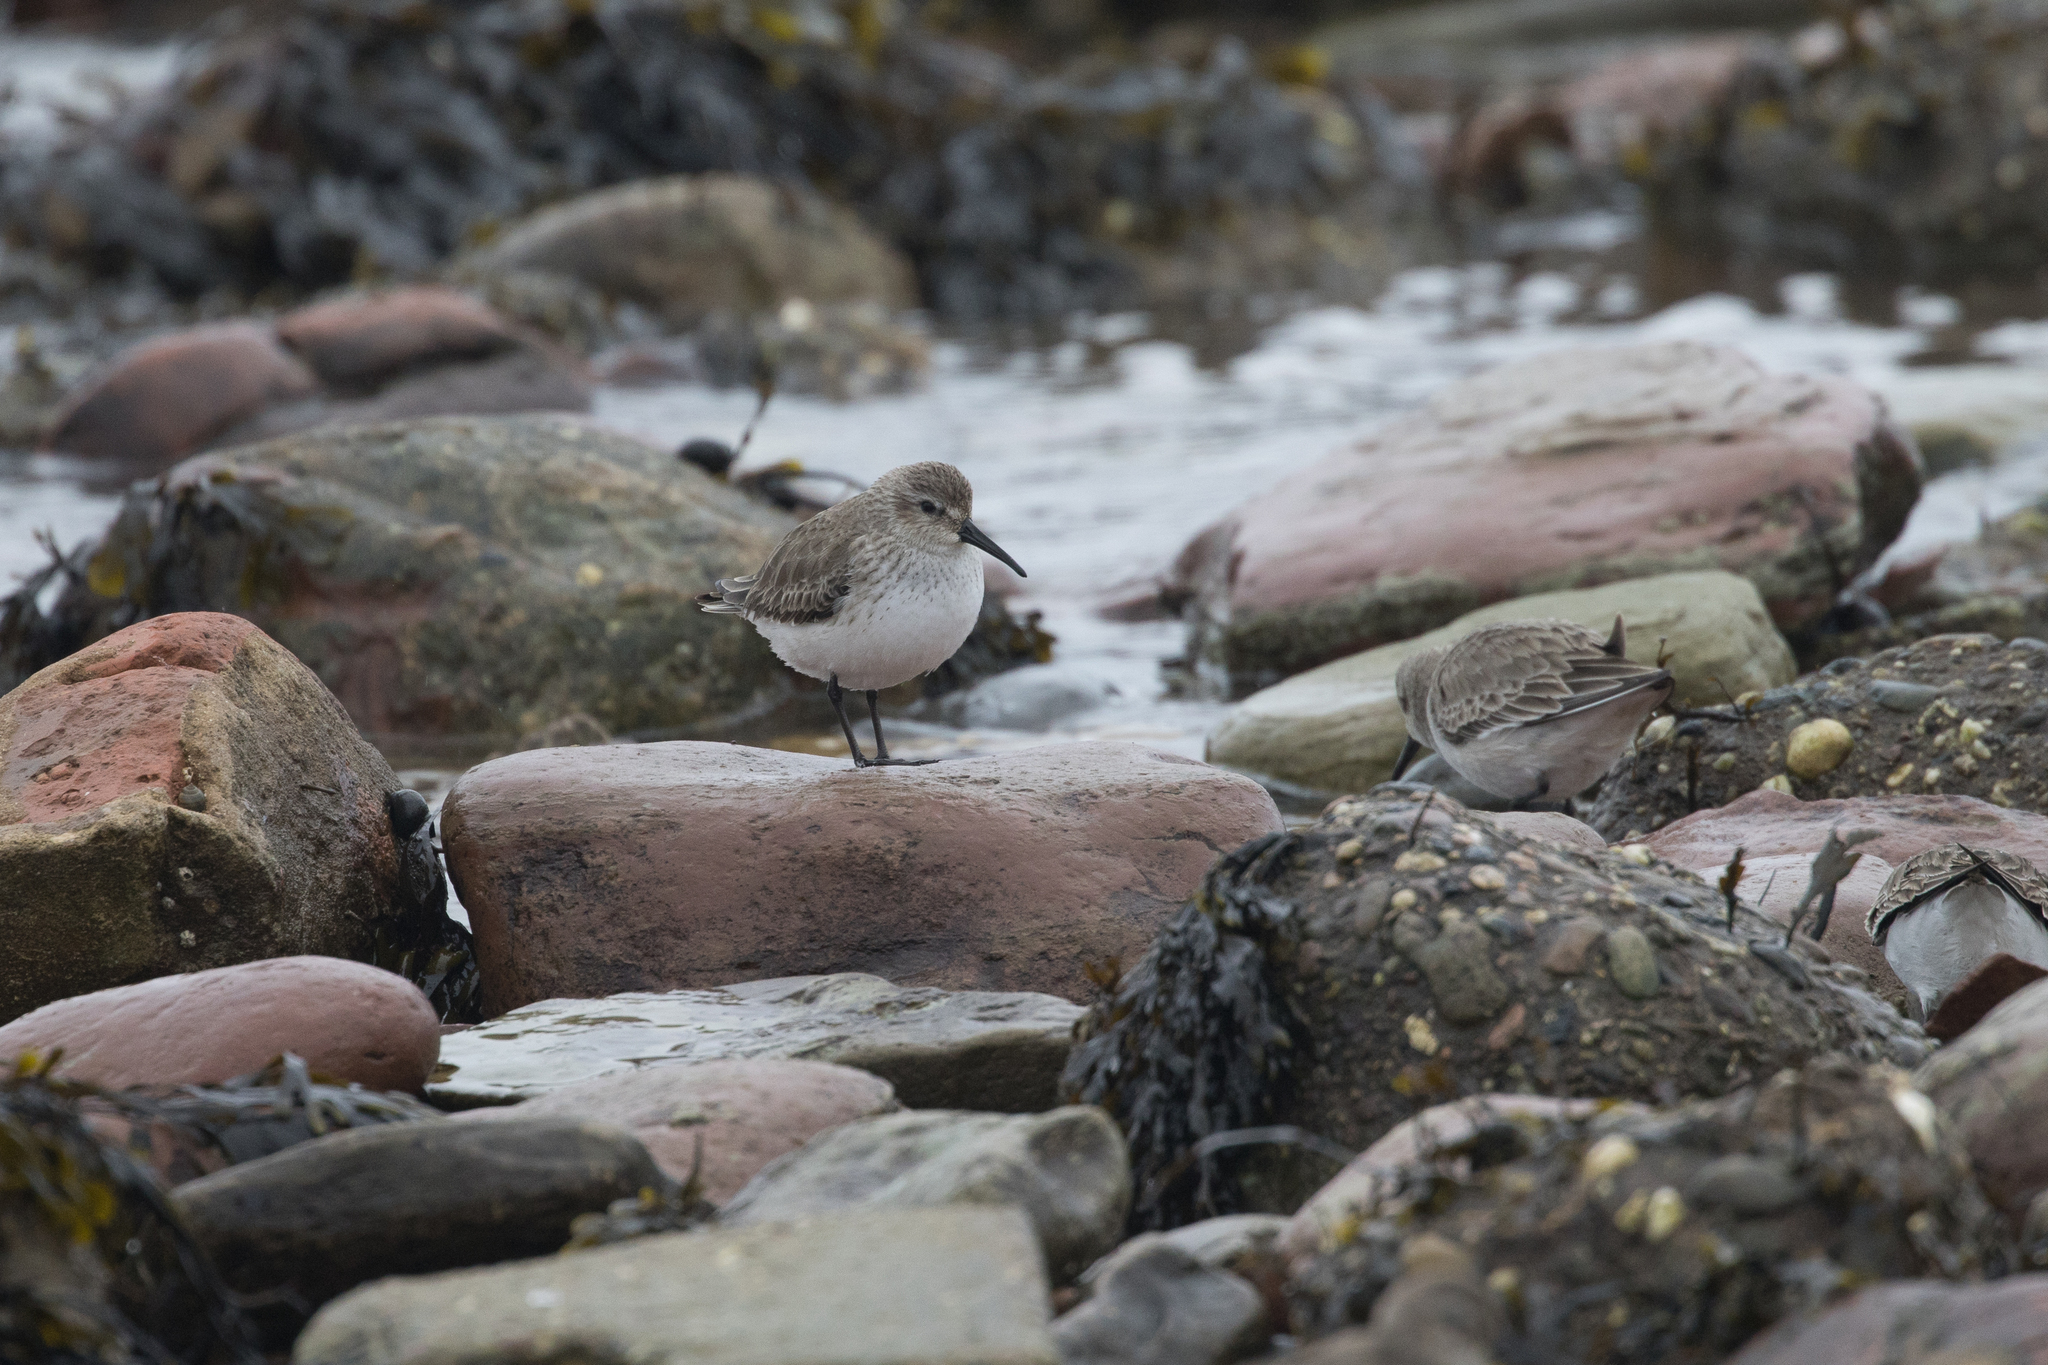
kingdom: Animalia
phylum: Chordata
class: Aves
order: Charadriiformes
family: Scolopacidae
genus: Calidris
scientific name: Calidris alpina
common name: Dunlin
